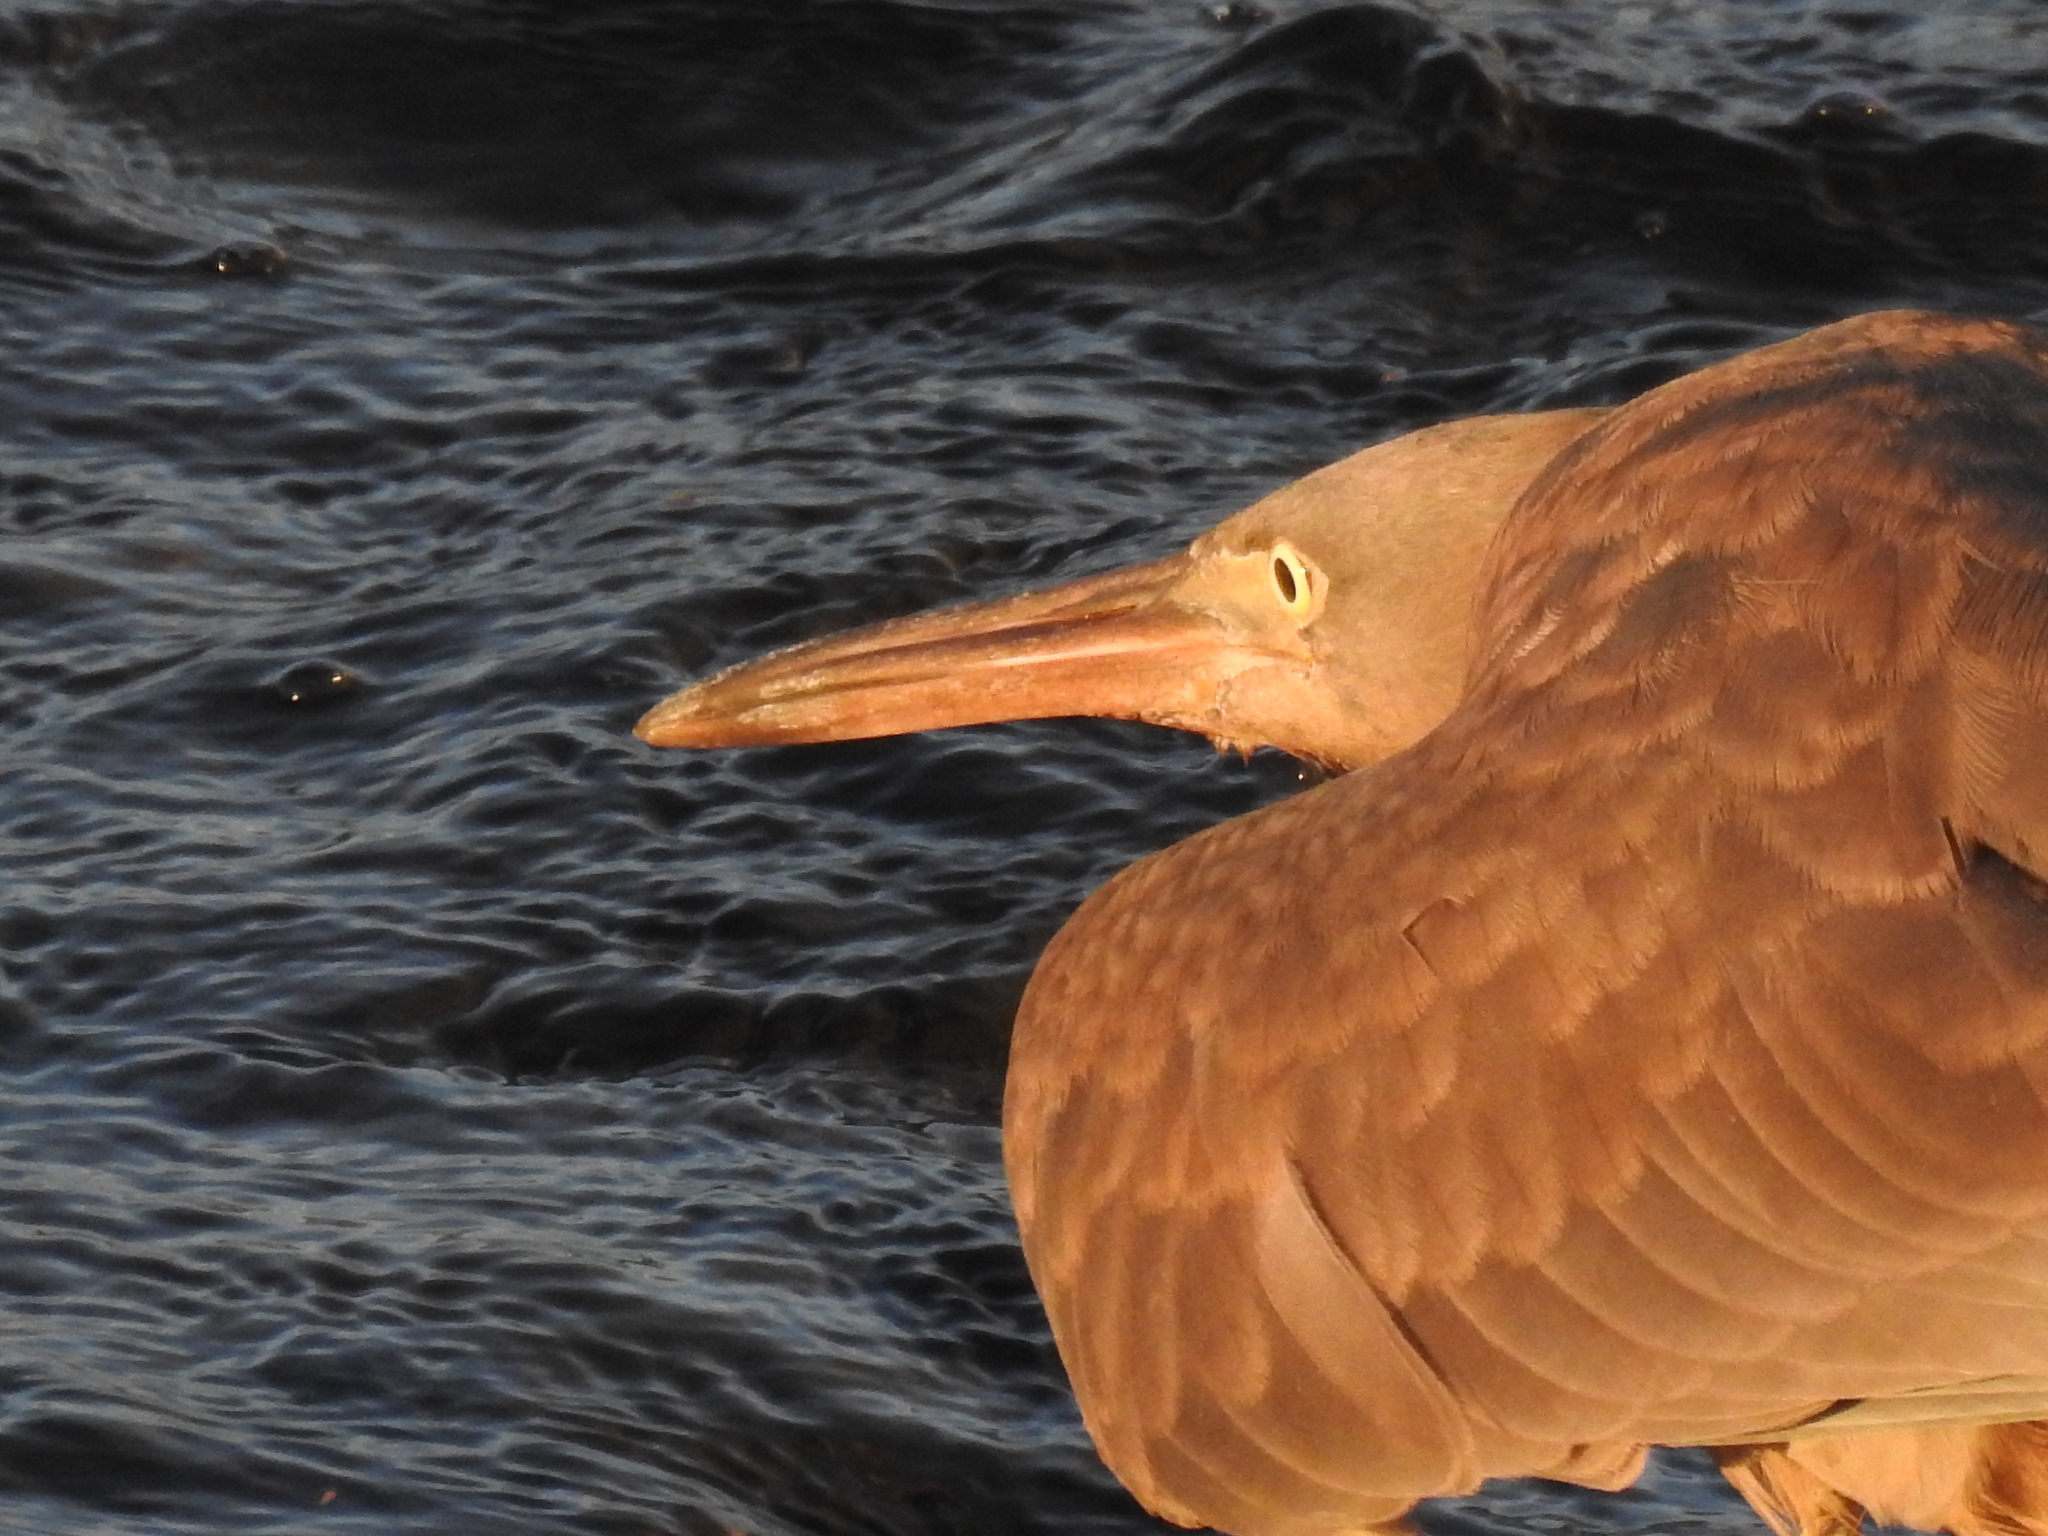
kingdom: Animalia
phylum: Chordata
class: Aves
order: Pelecaniformes
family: Ardeidae
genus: Egretta
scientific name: Egretta sacra
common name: Pacific reef heron
